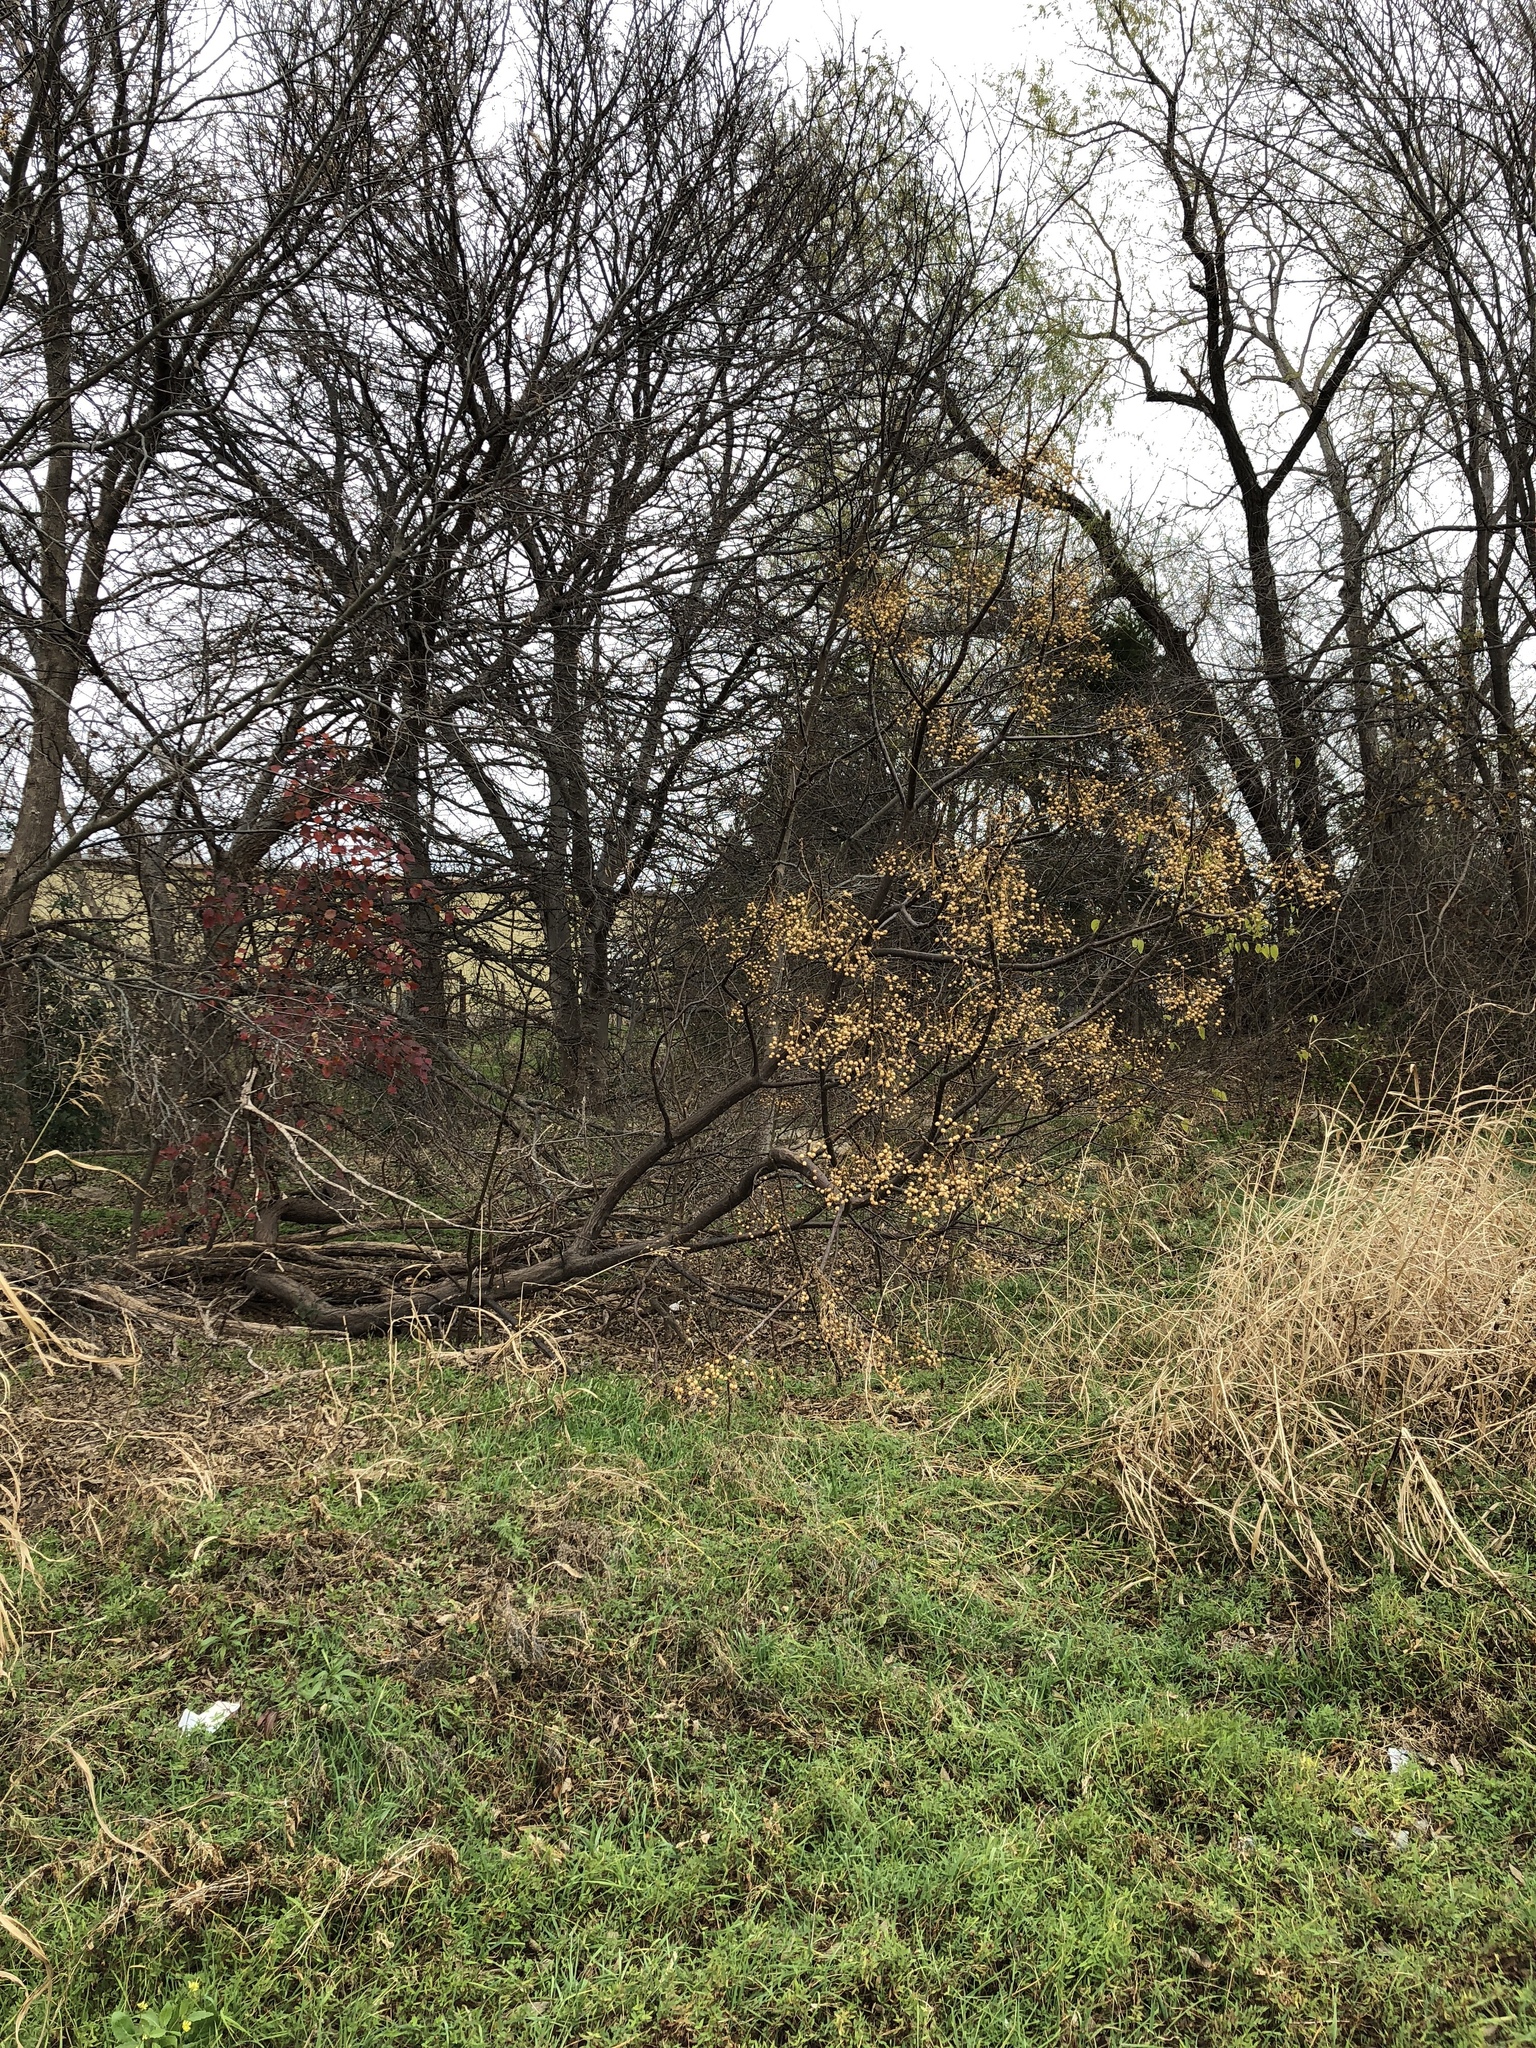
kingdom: Plantae
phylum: Tracheophyta
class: Magnoliopsida
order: Sapindales
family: Meliaceae
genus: Melia
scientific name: Melia azedarach
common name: Chinaberrytree
